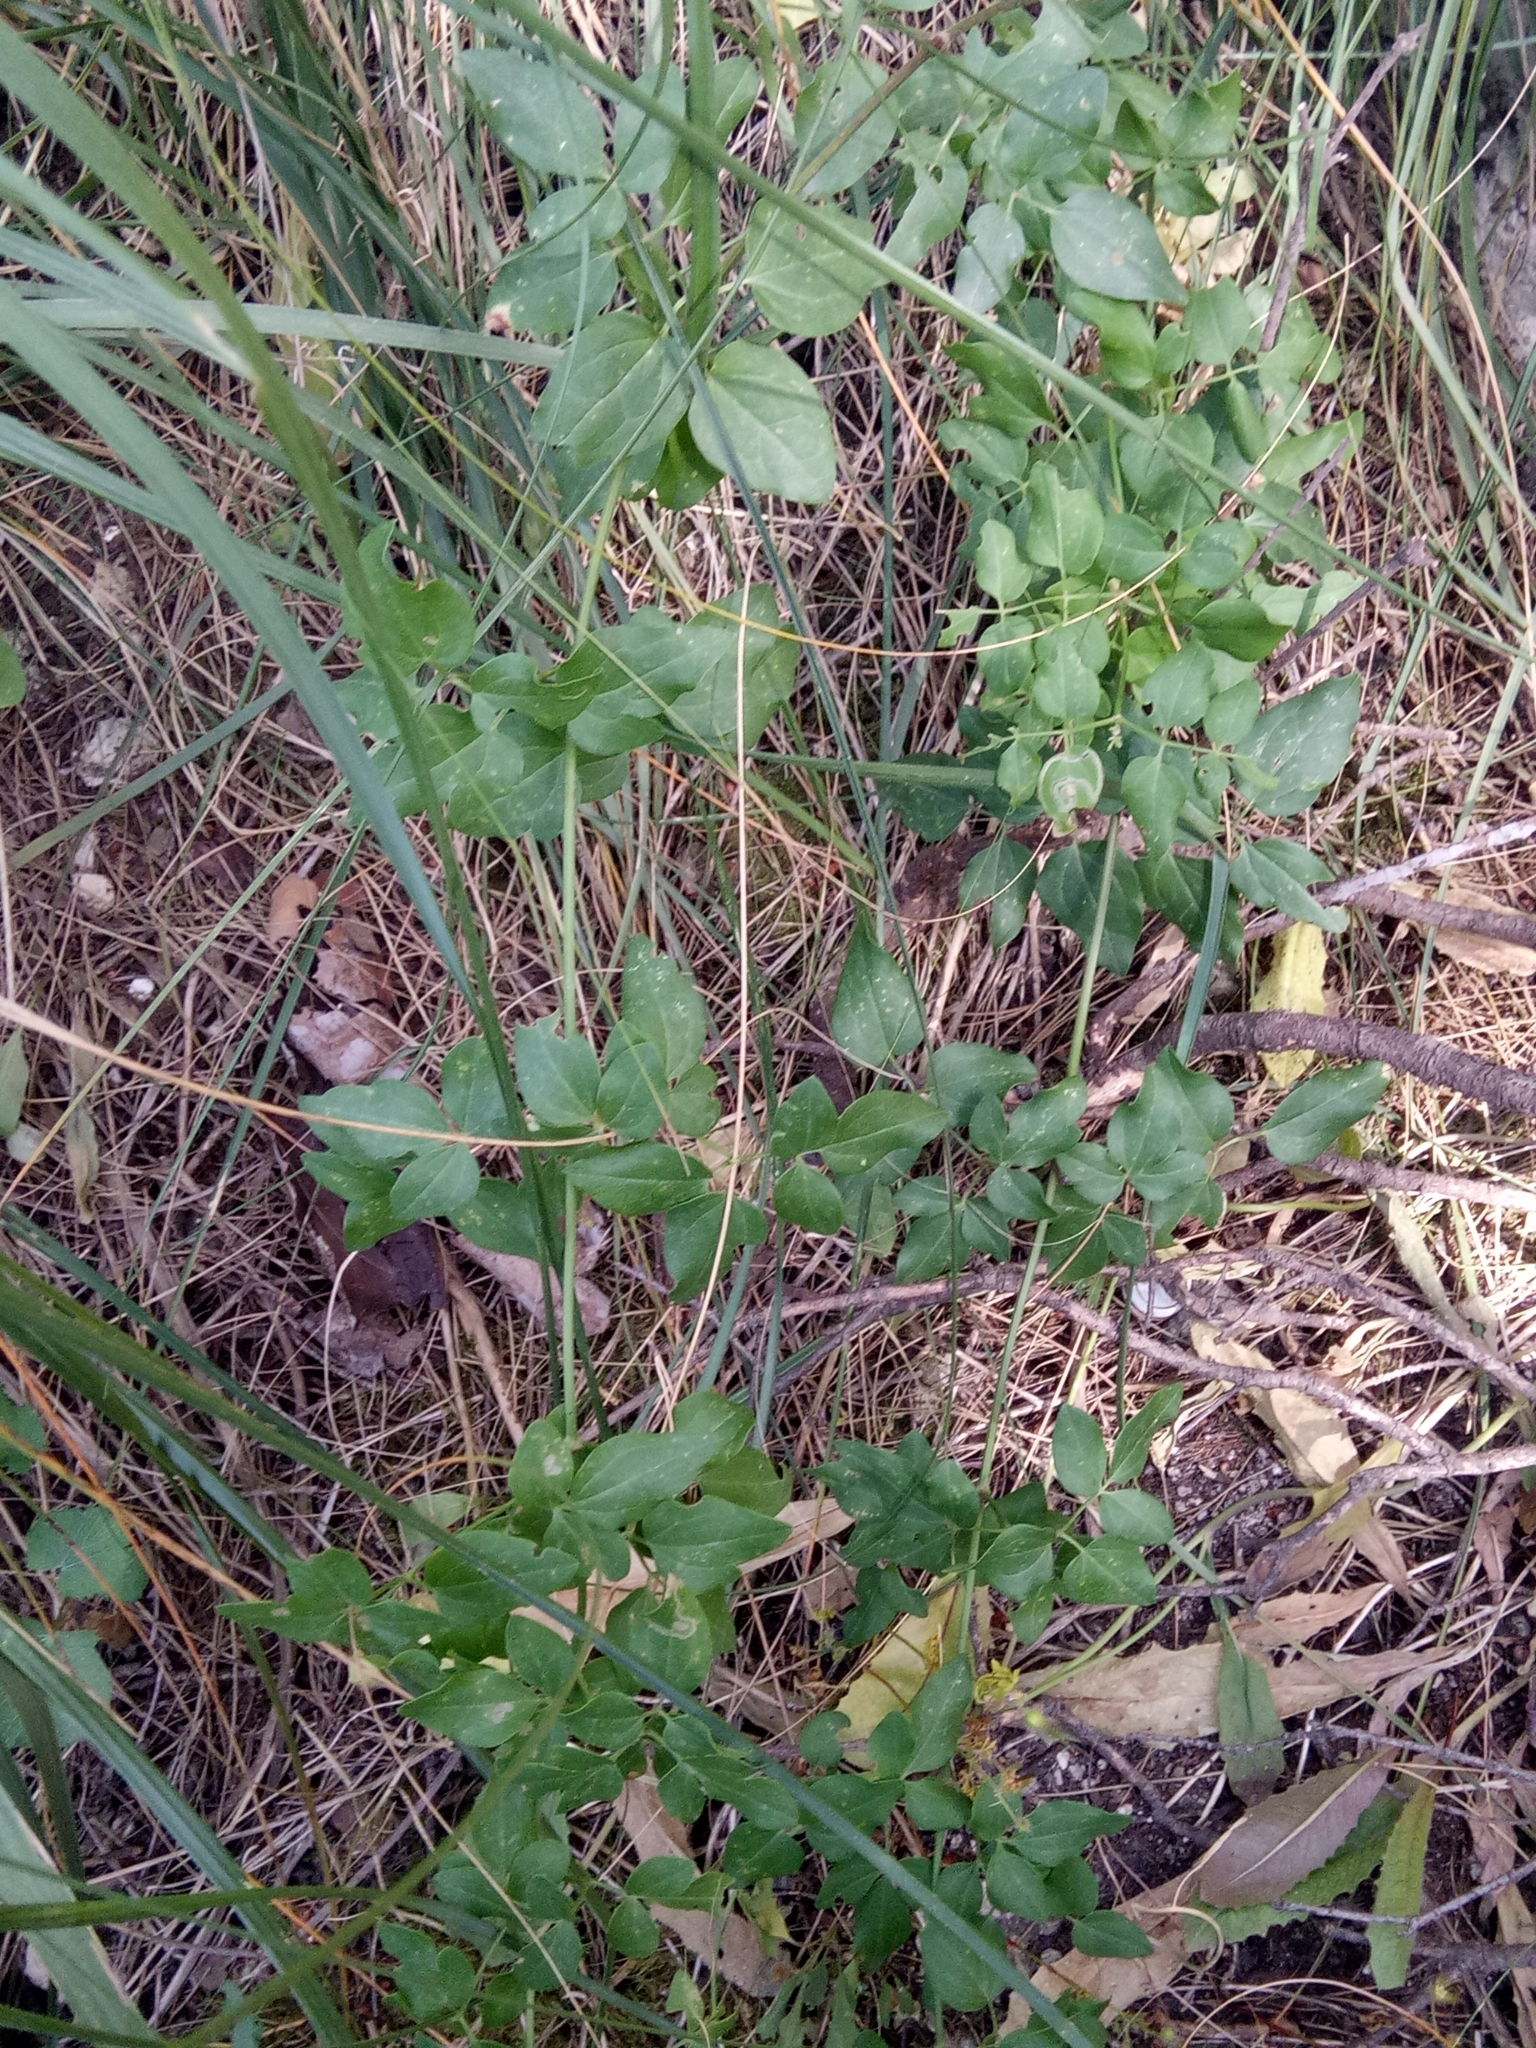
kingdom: Plantae
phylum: Tracheophyta
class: Magnoliopsida
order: Ranunculales
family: Ranunculaceae
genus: Clematis
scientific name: Clematis flammula
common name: Virgin's-bower
